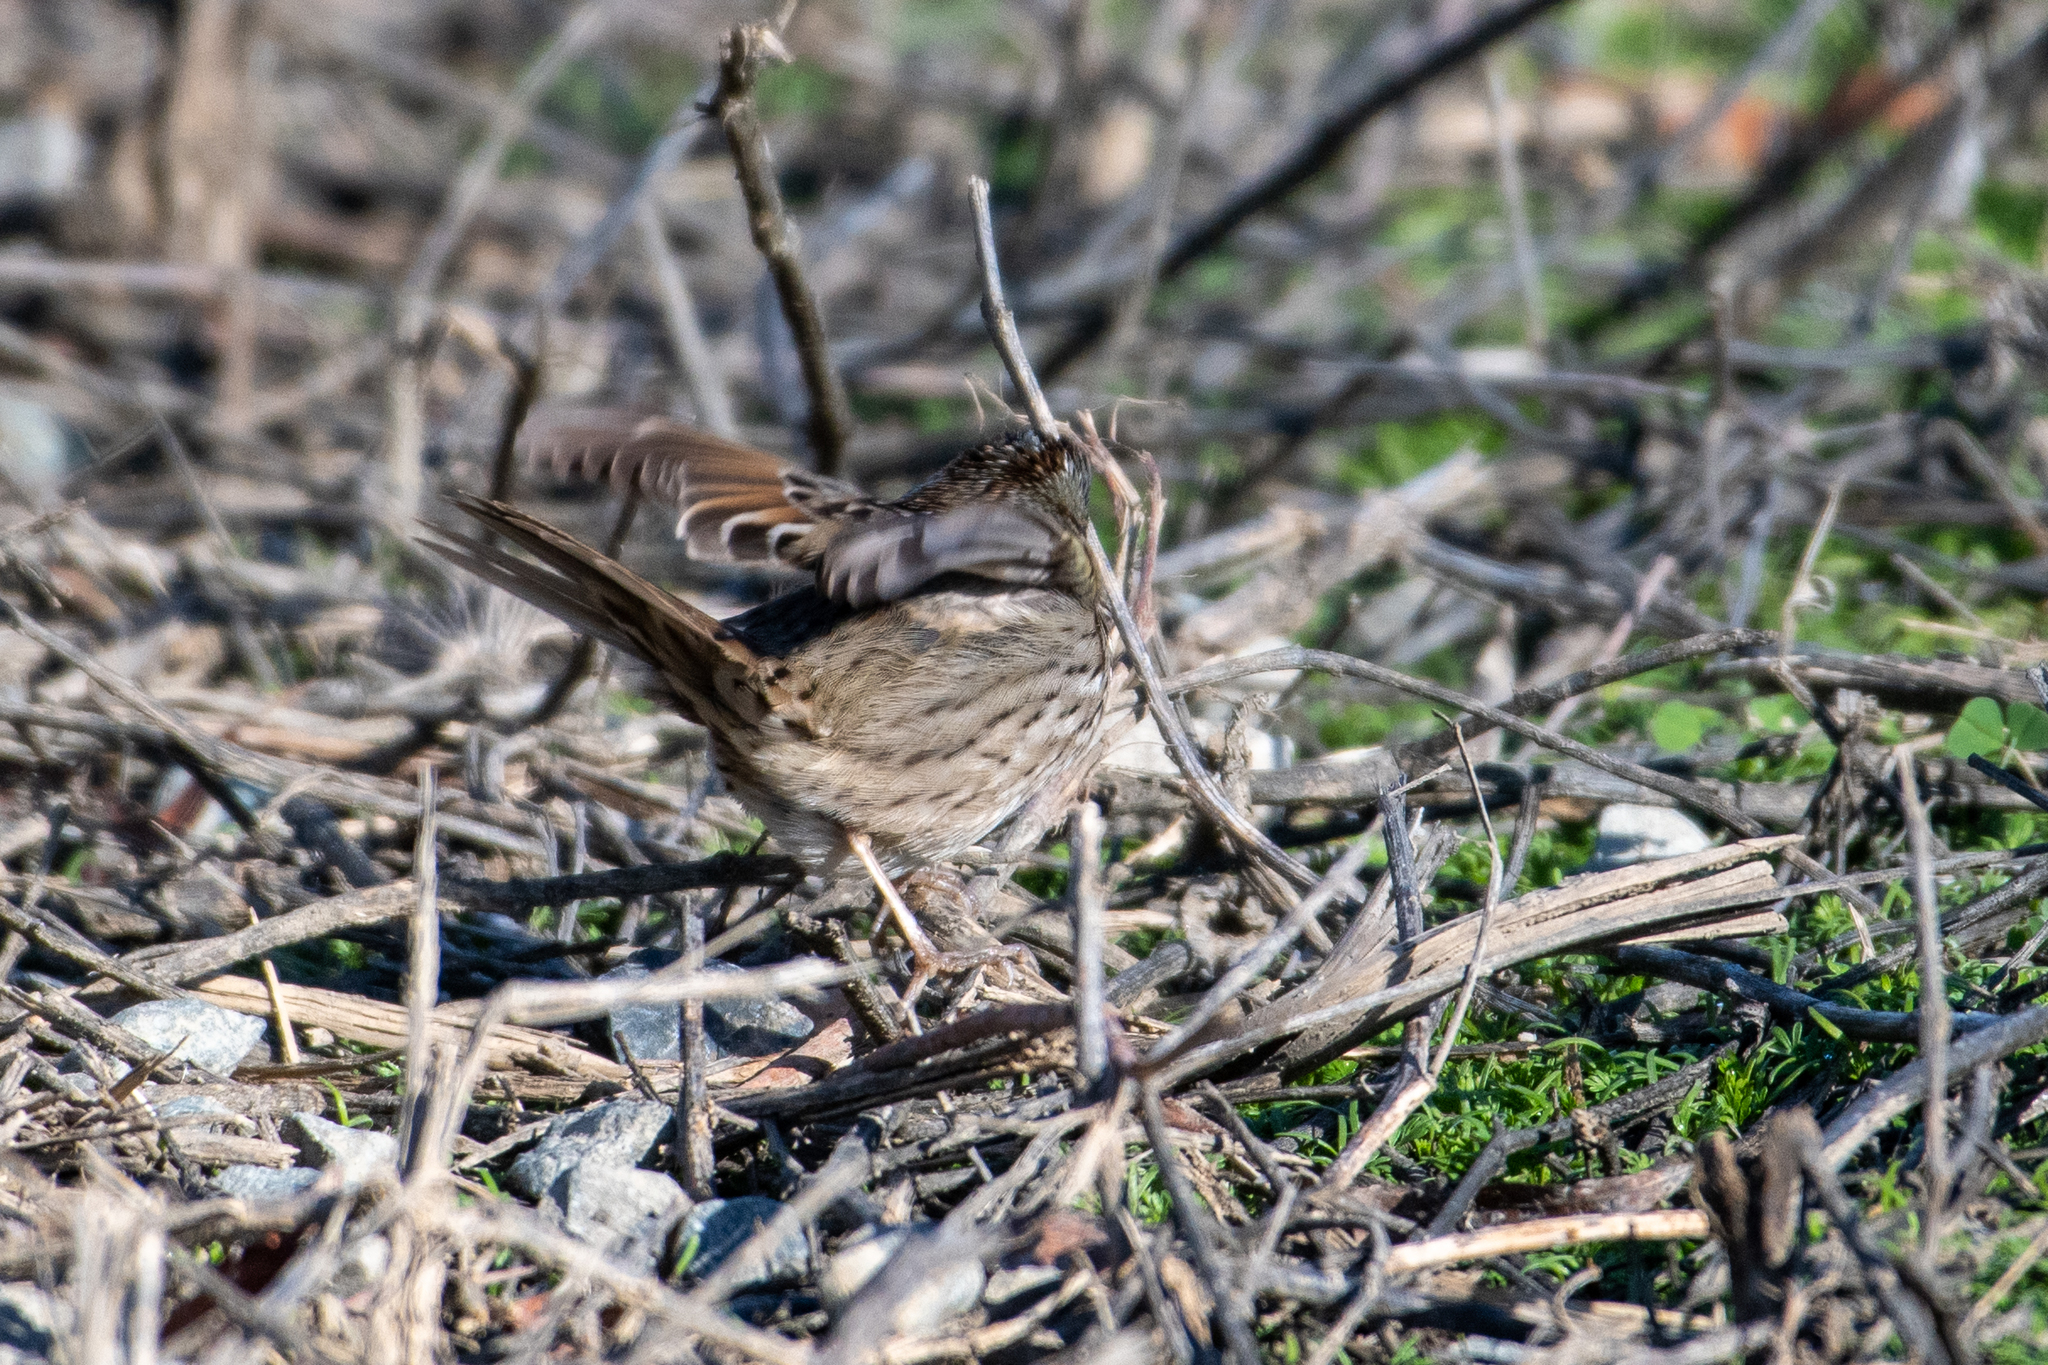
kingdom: Animalia
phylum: Chordata
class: Aves
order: Passeriformes
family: Passerellidae
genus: Melospiza
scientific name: Melospiza lincolnii
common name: Lincoln's sparrow
